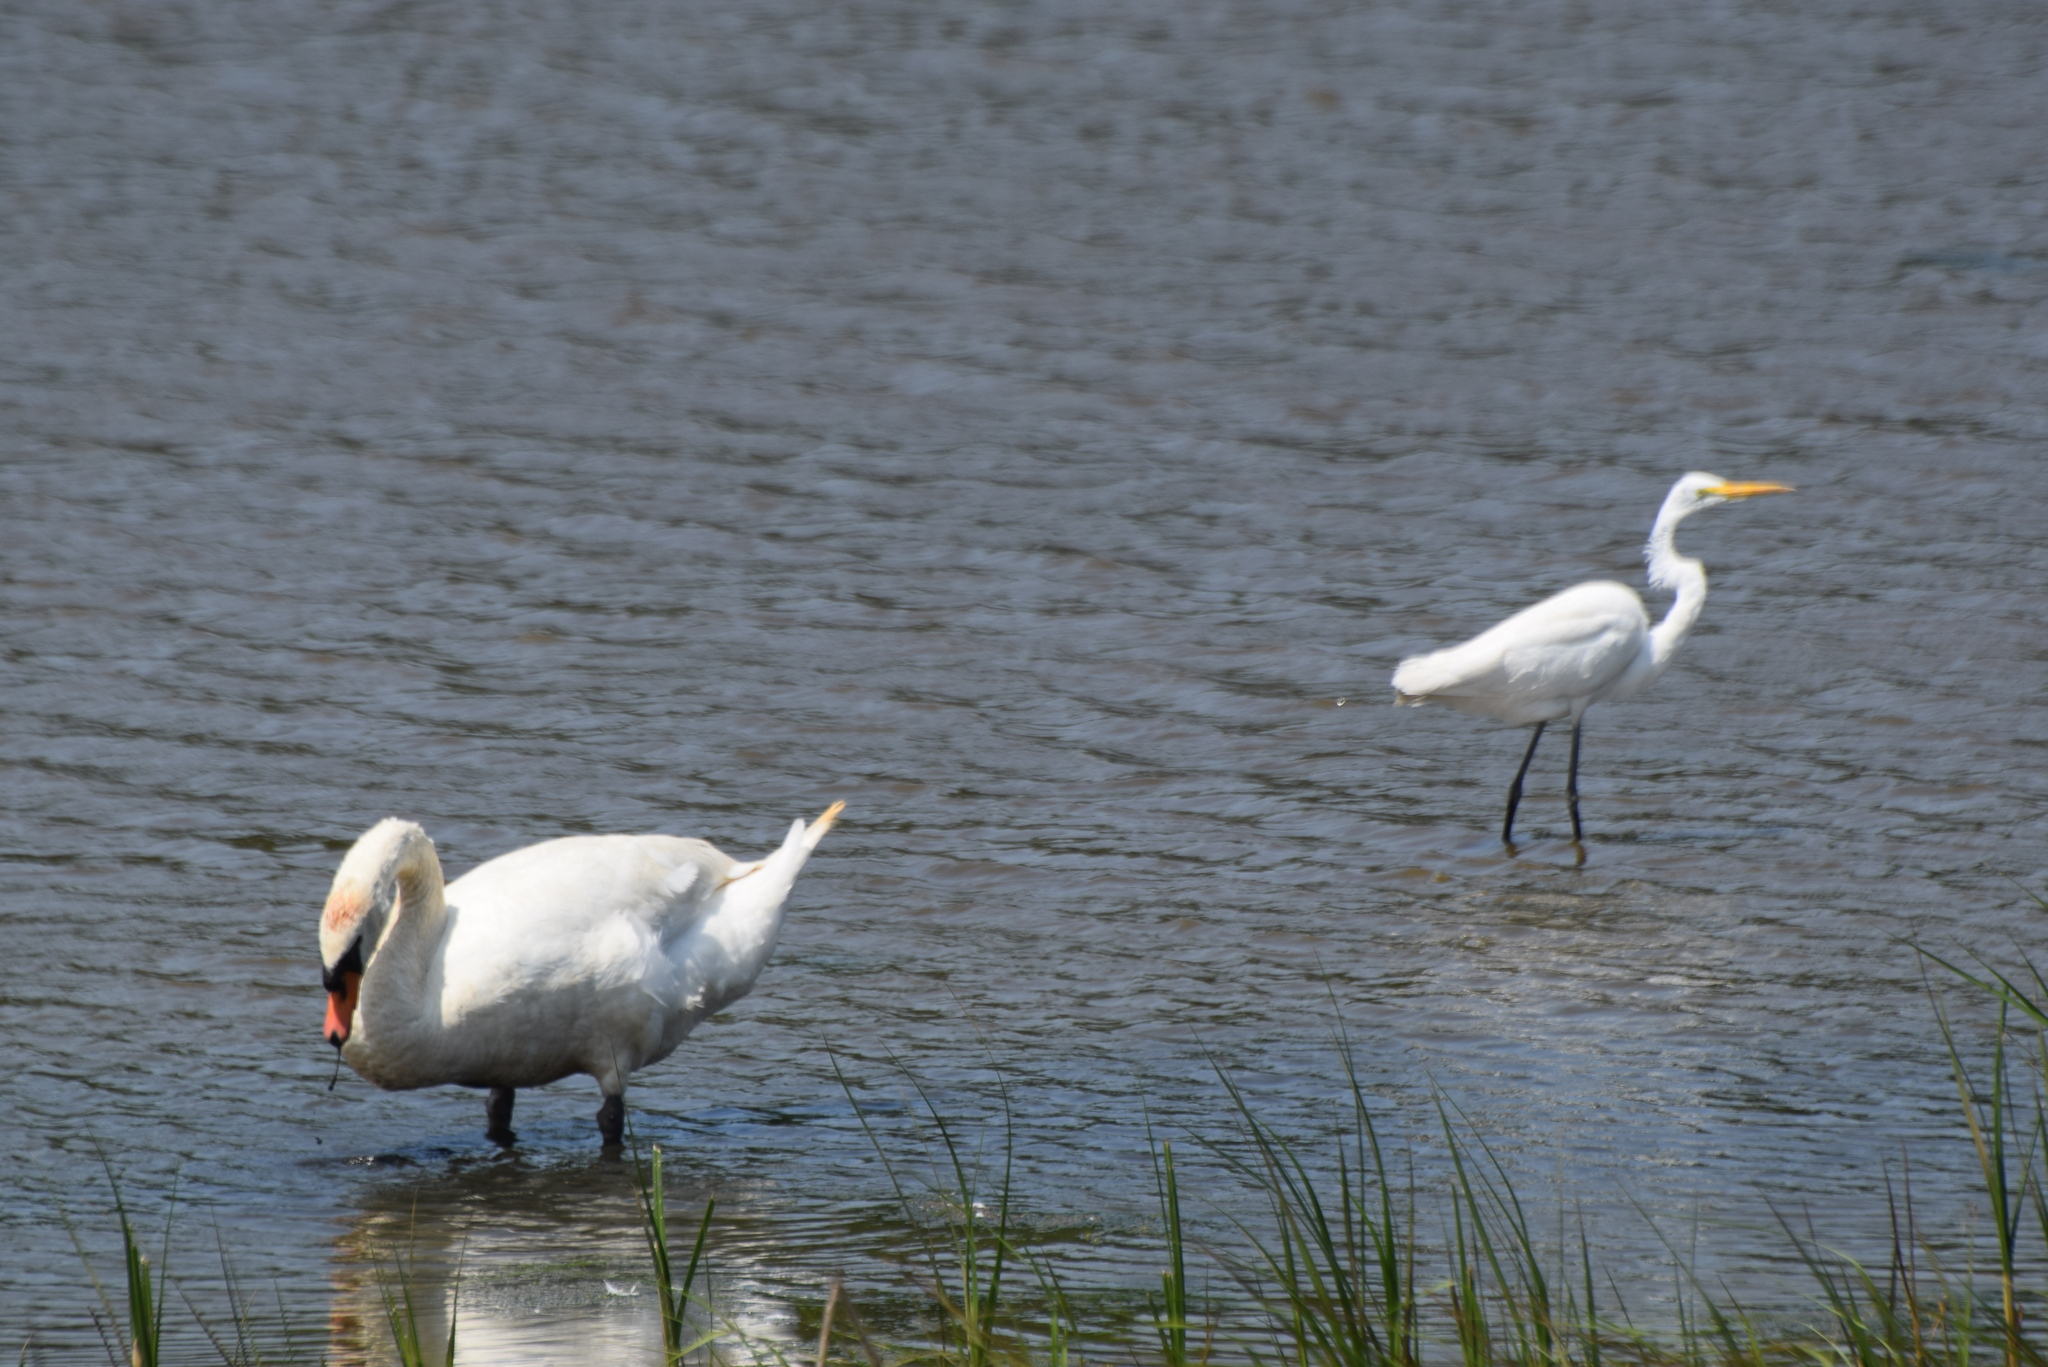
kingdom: Animalia
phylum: Chordata
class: Aves
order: Pelecaniformes
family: Ardeidae
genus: Ardea
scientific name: Ardea alba
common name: Great egret
